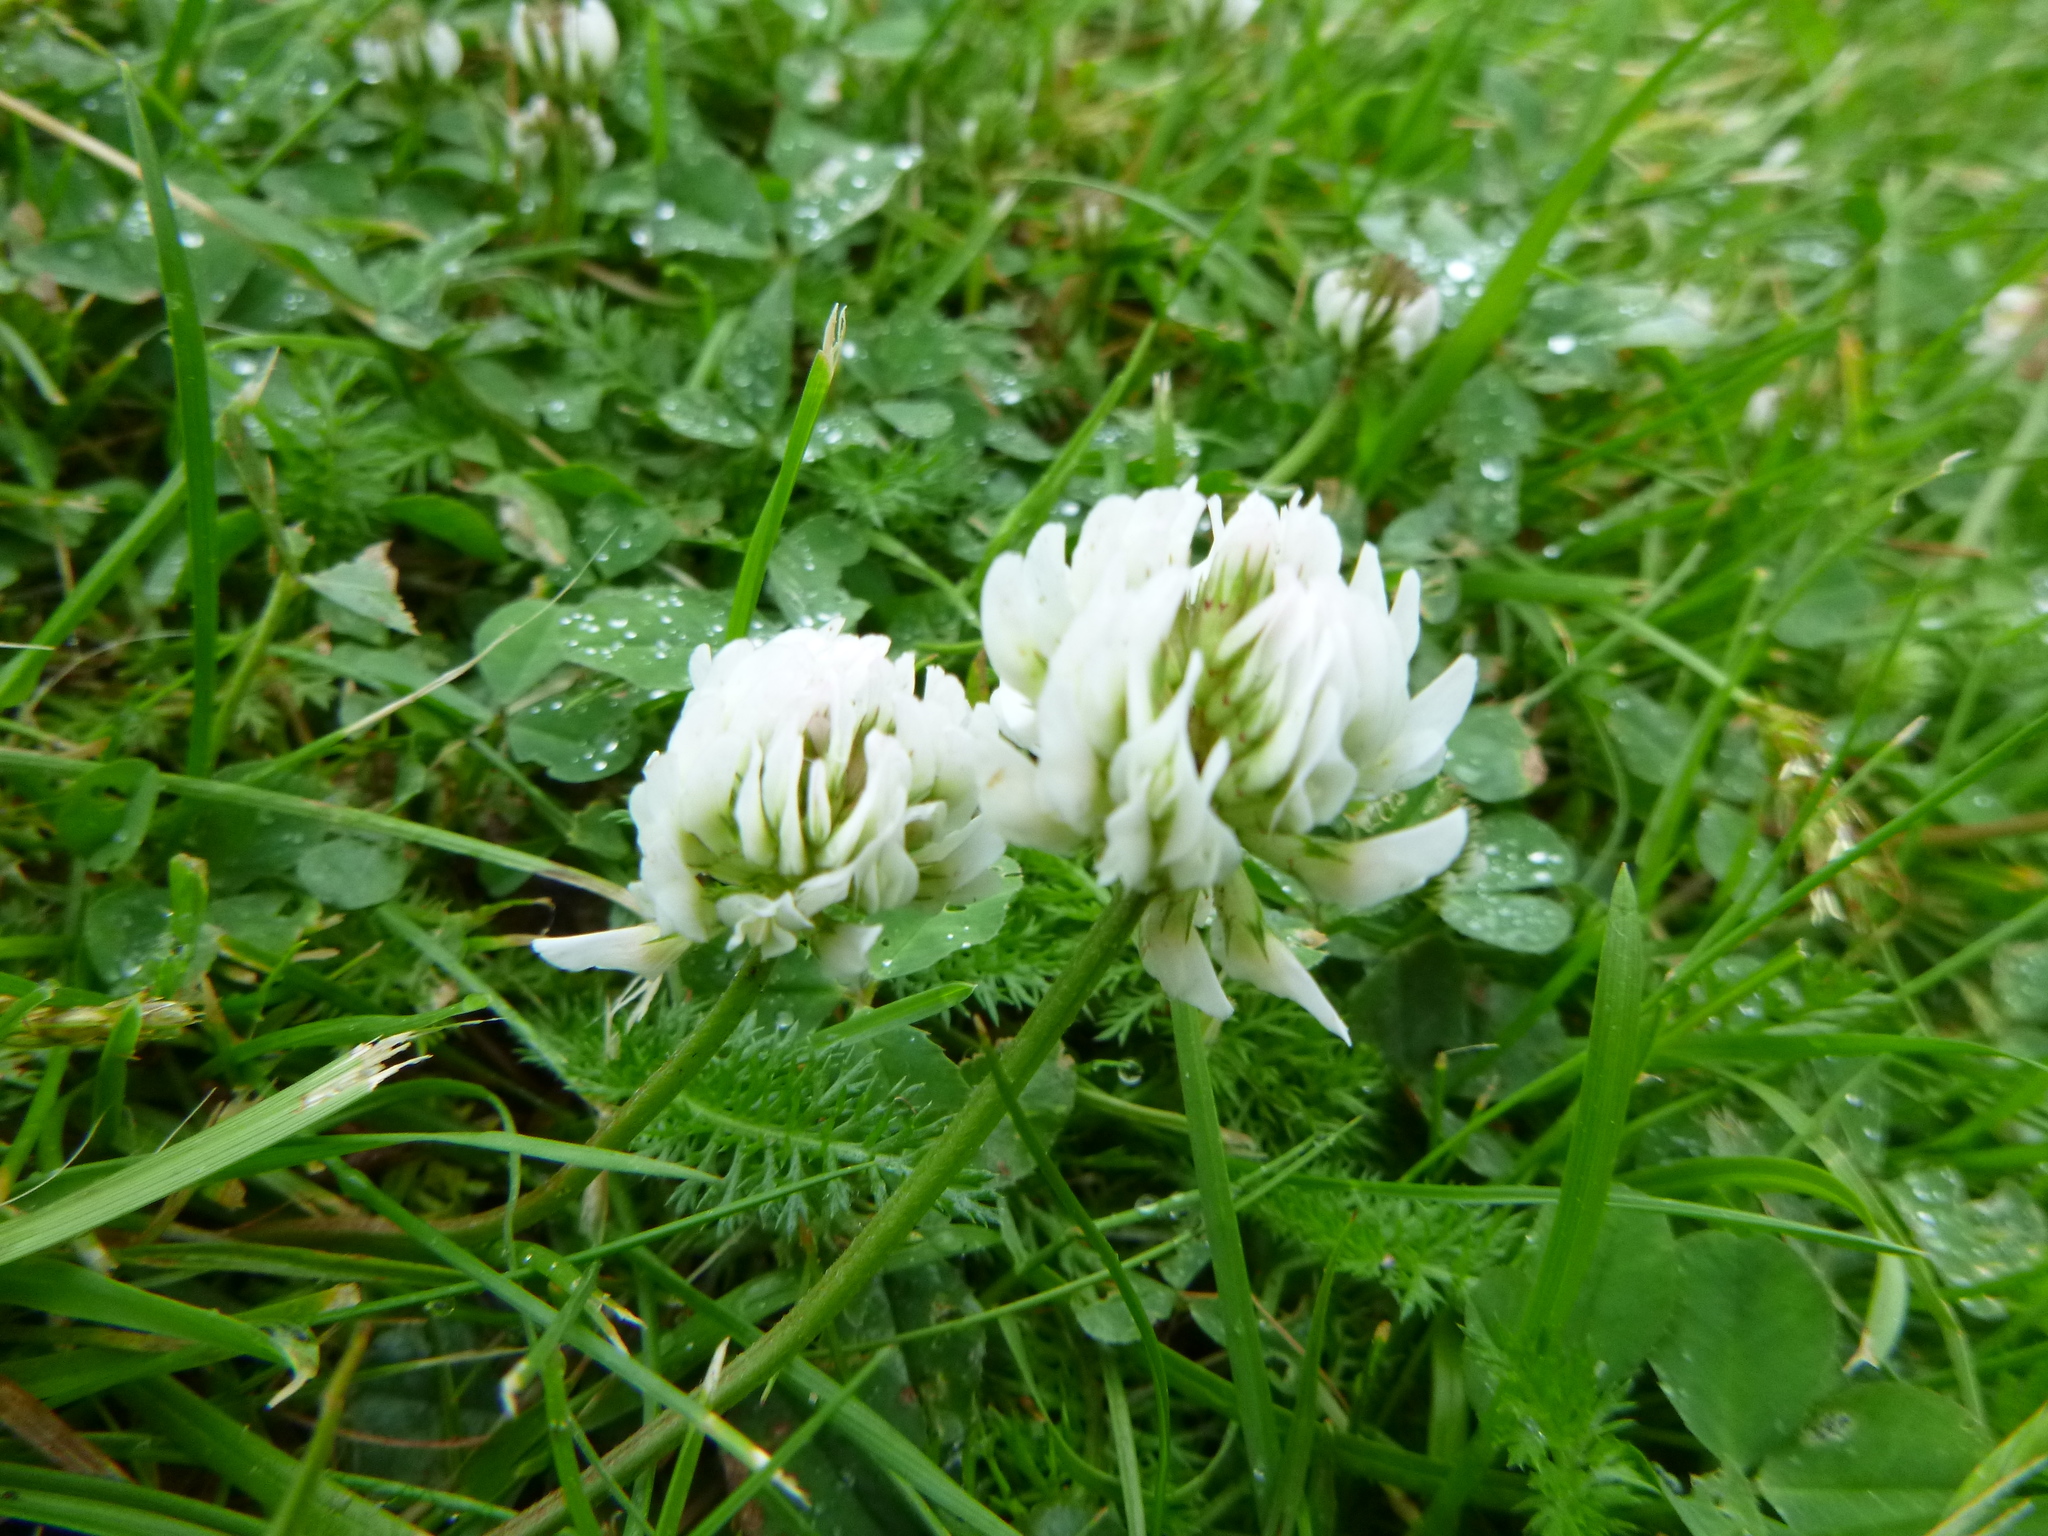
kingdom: Plantae
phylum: Tracheophyta
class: Magnoliopsida
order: Fabales
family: Fabaceae
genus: Trifolium
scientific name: Trifolium repens
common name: White clover
